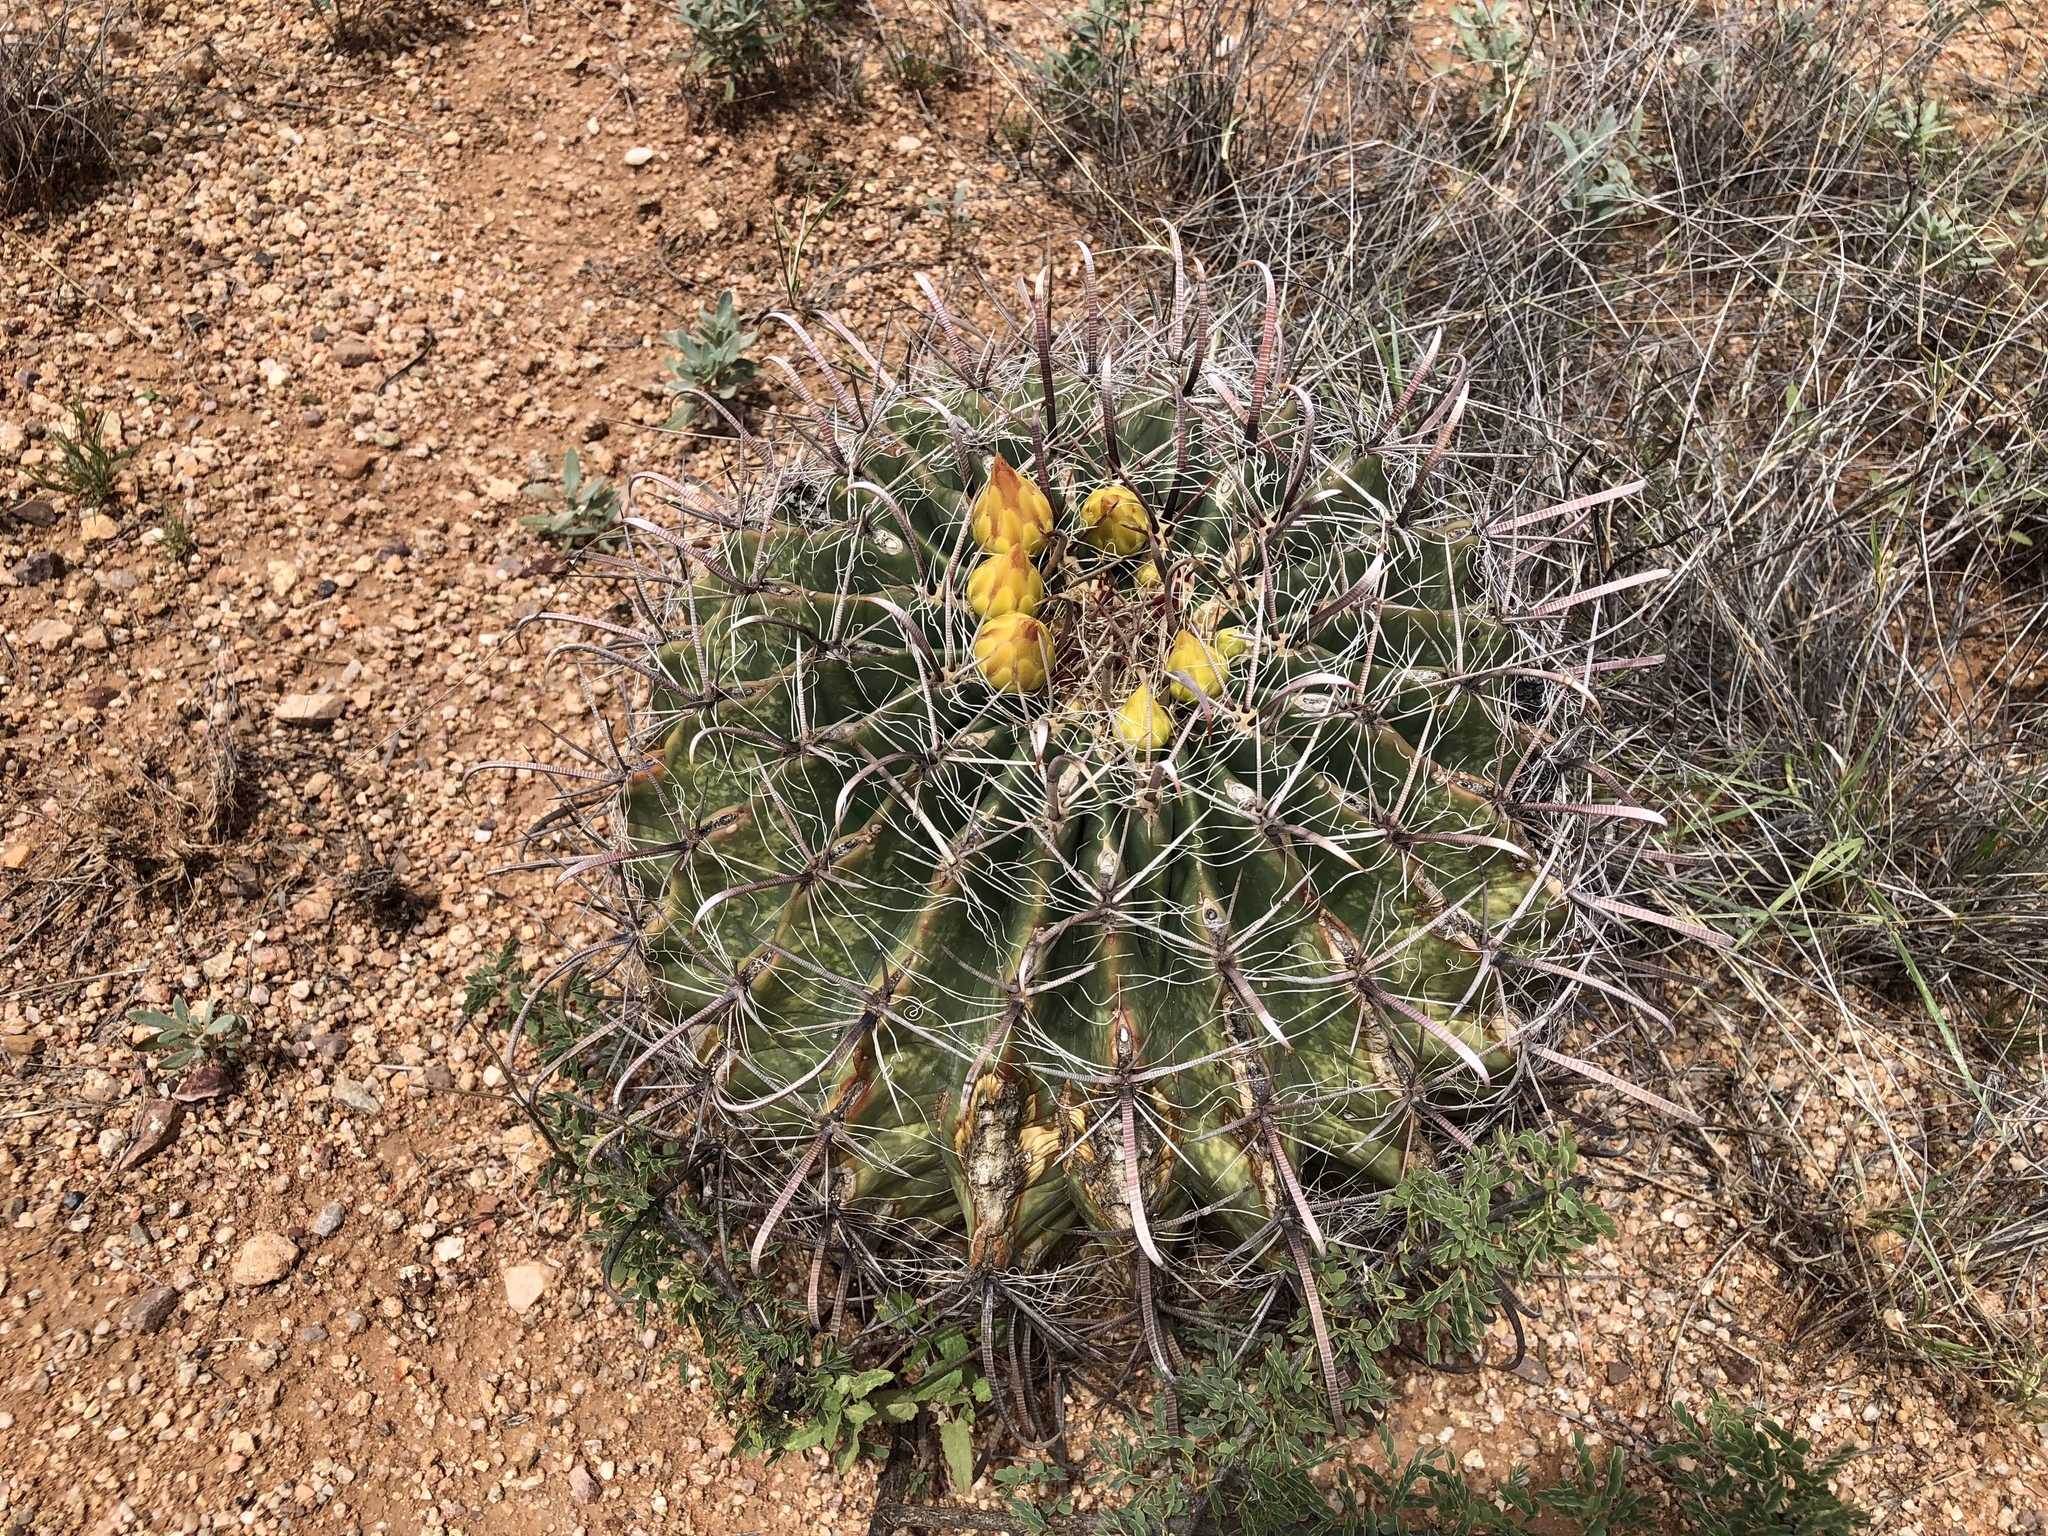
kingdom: Plantae
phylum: Tracheophyta
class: Magnoliopsida
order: Caryophyllales
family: Cactaceae
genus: Ferocactus
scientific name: Ferocactus wislizeni
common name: Candy barrel cactus
